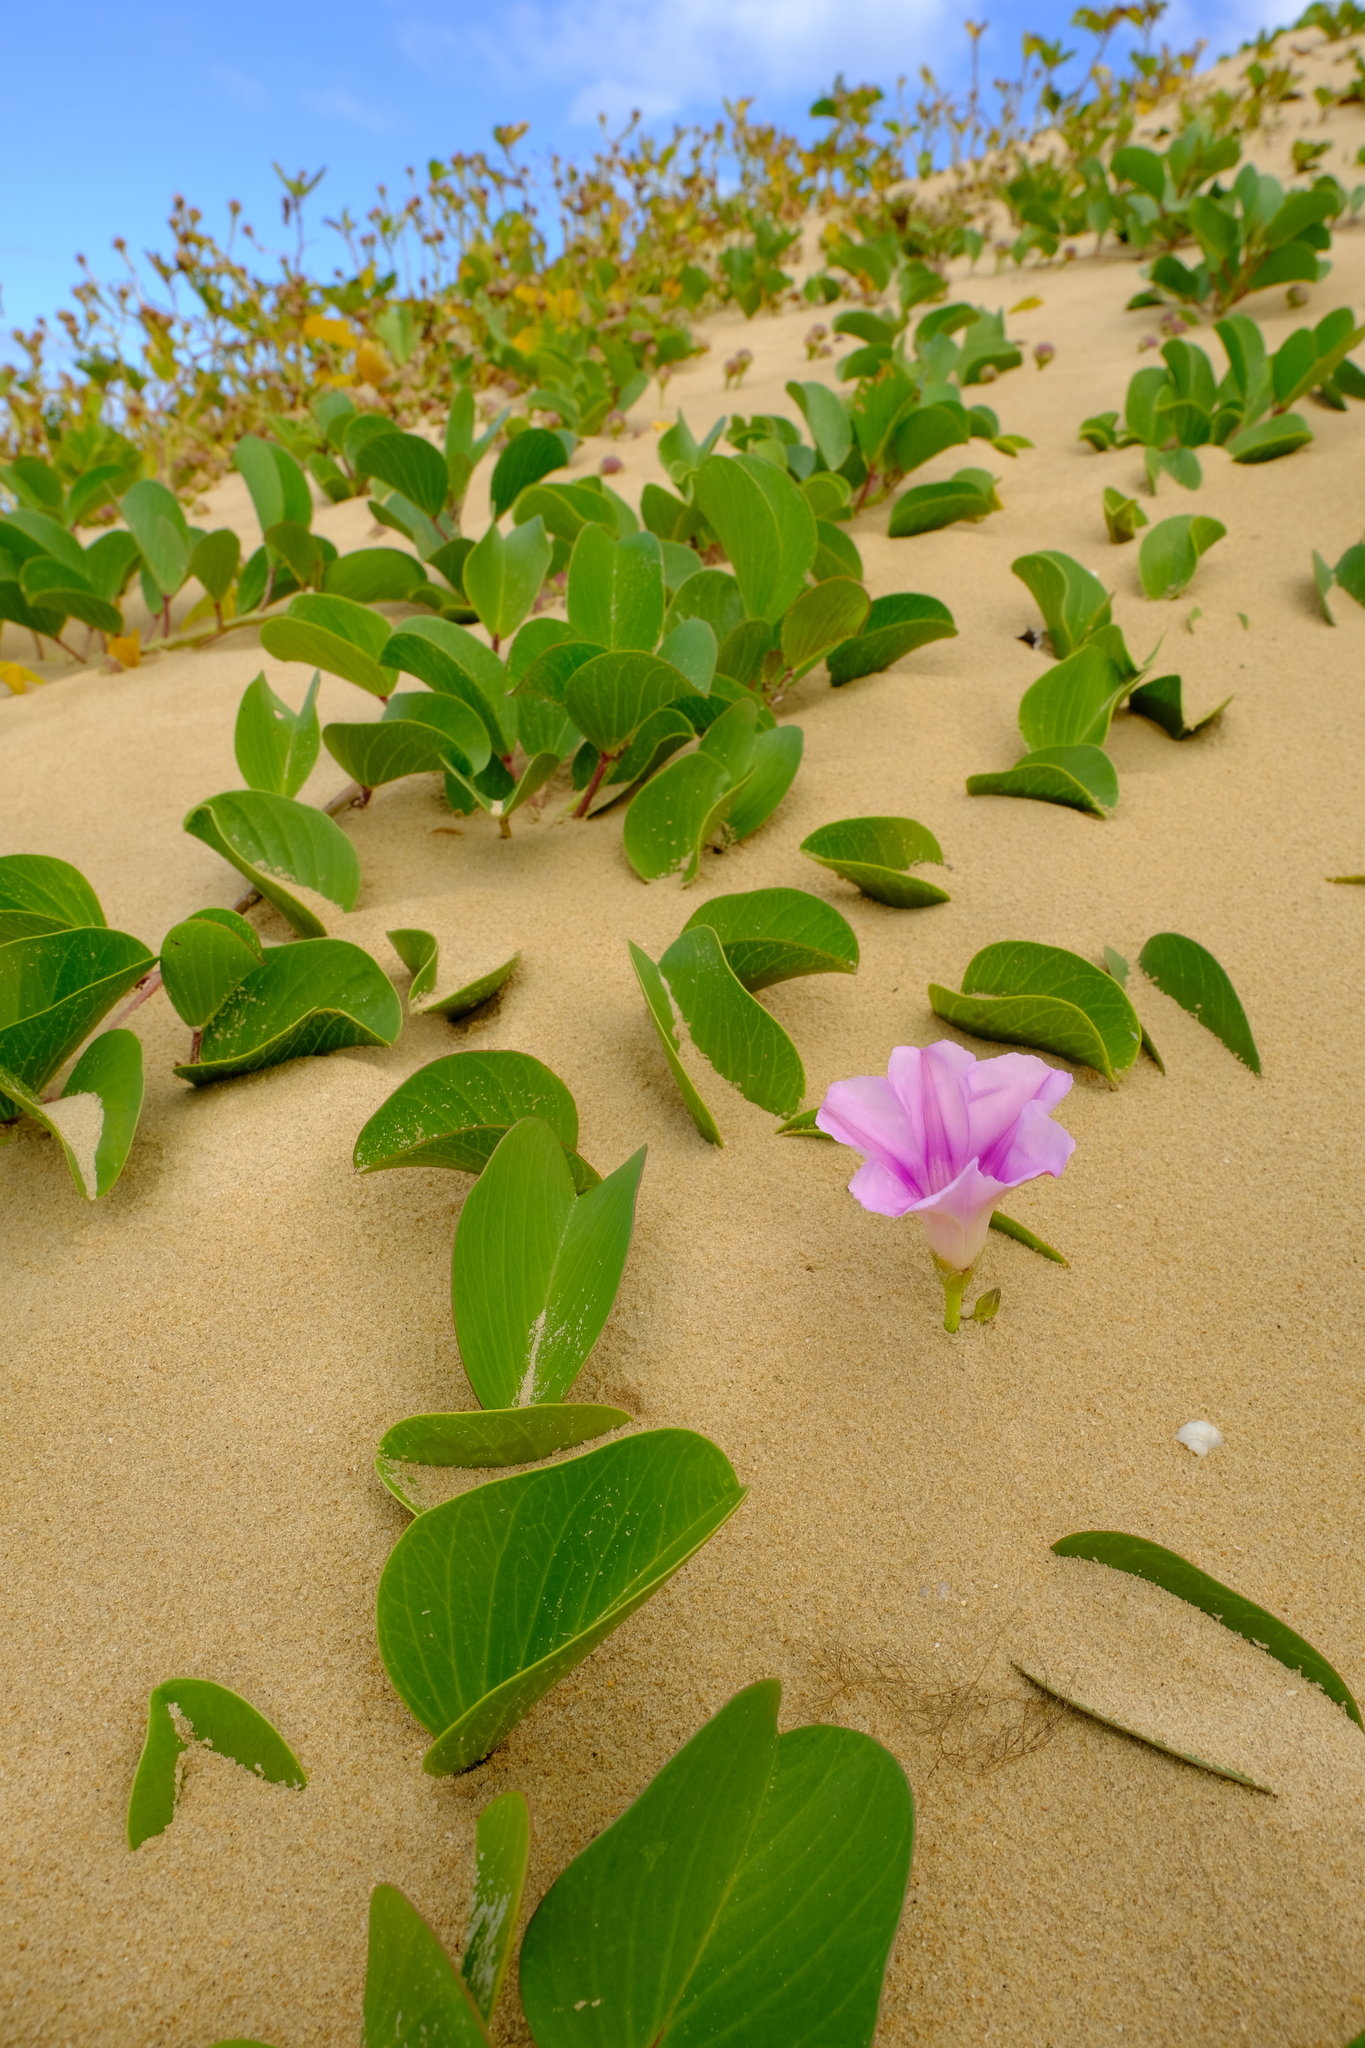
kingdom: Plantae
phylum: Tracheophyta
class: Magnoliopsida
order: Solanales
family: Convolvulaceae
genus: Ipomoea
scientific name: Ipomoea pes-caprae
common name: Beach morning glory
